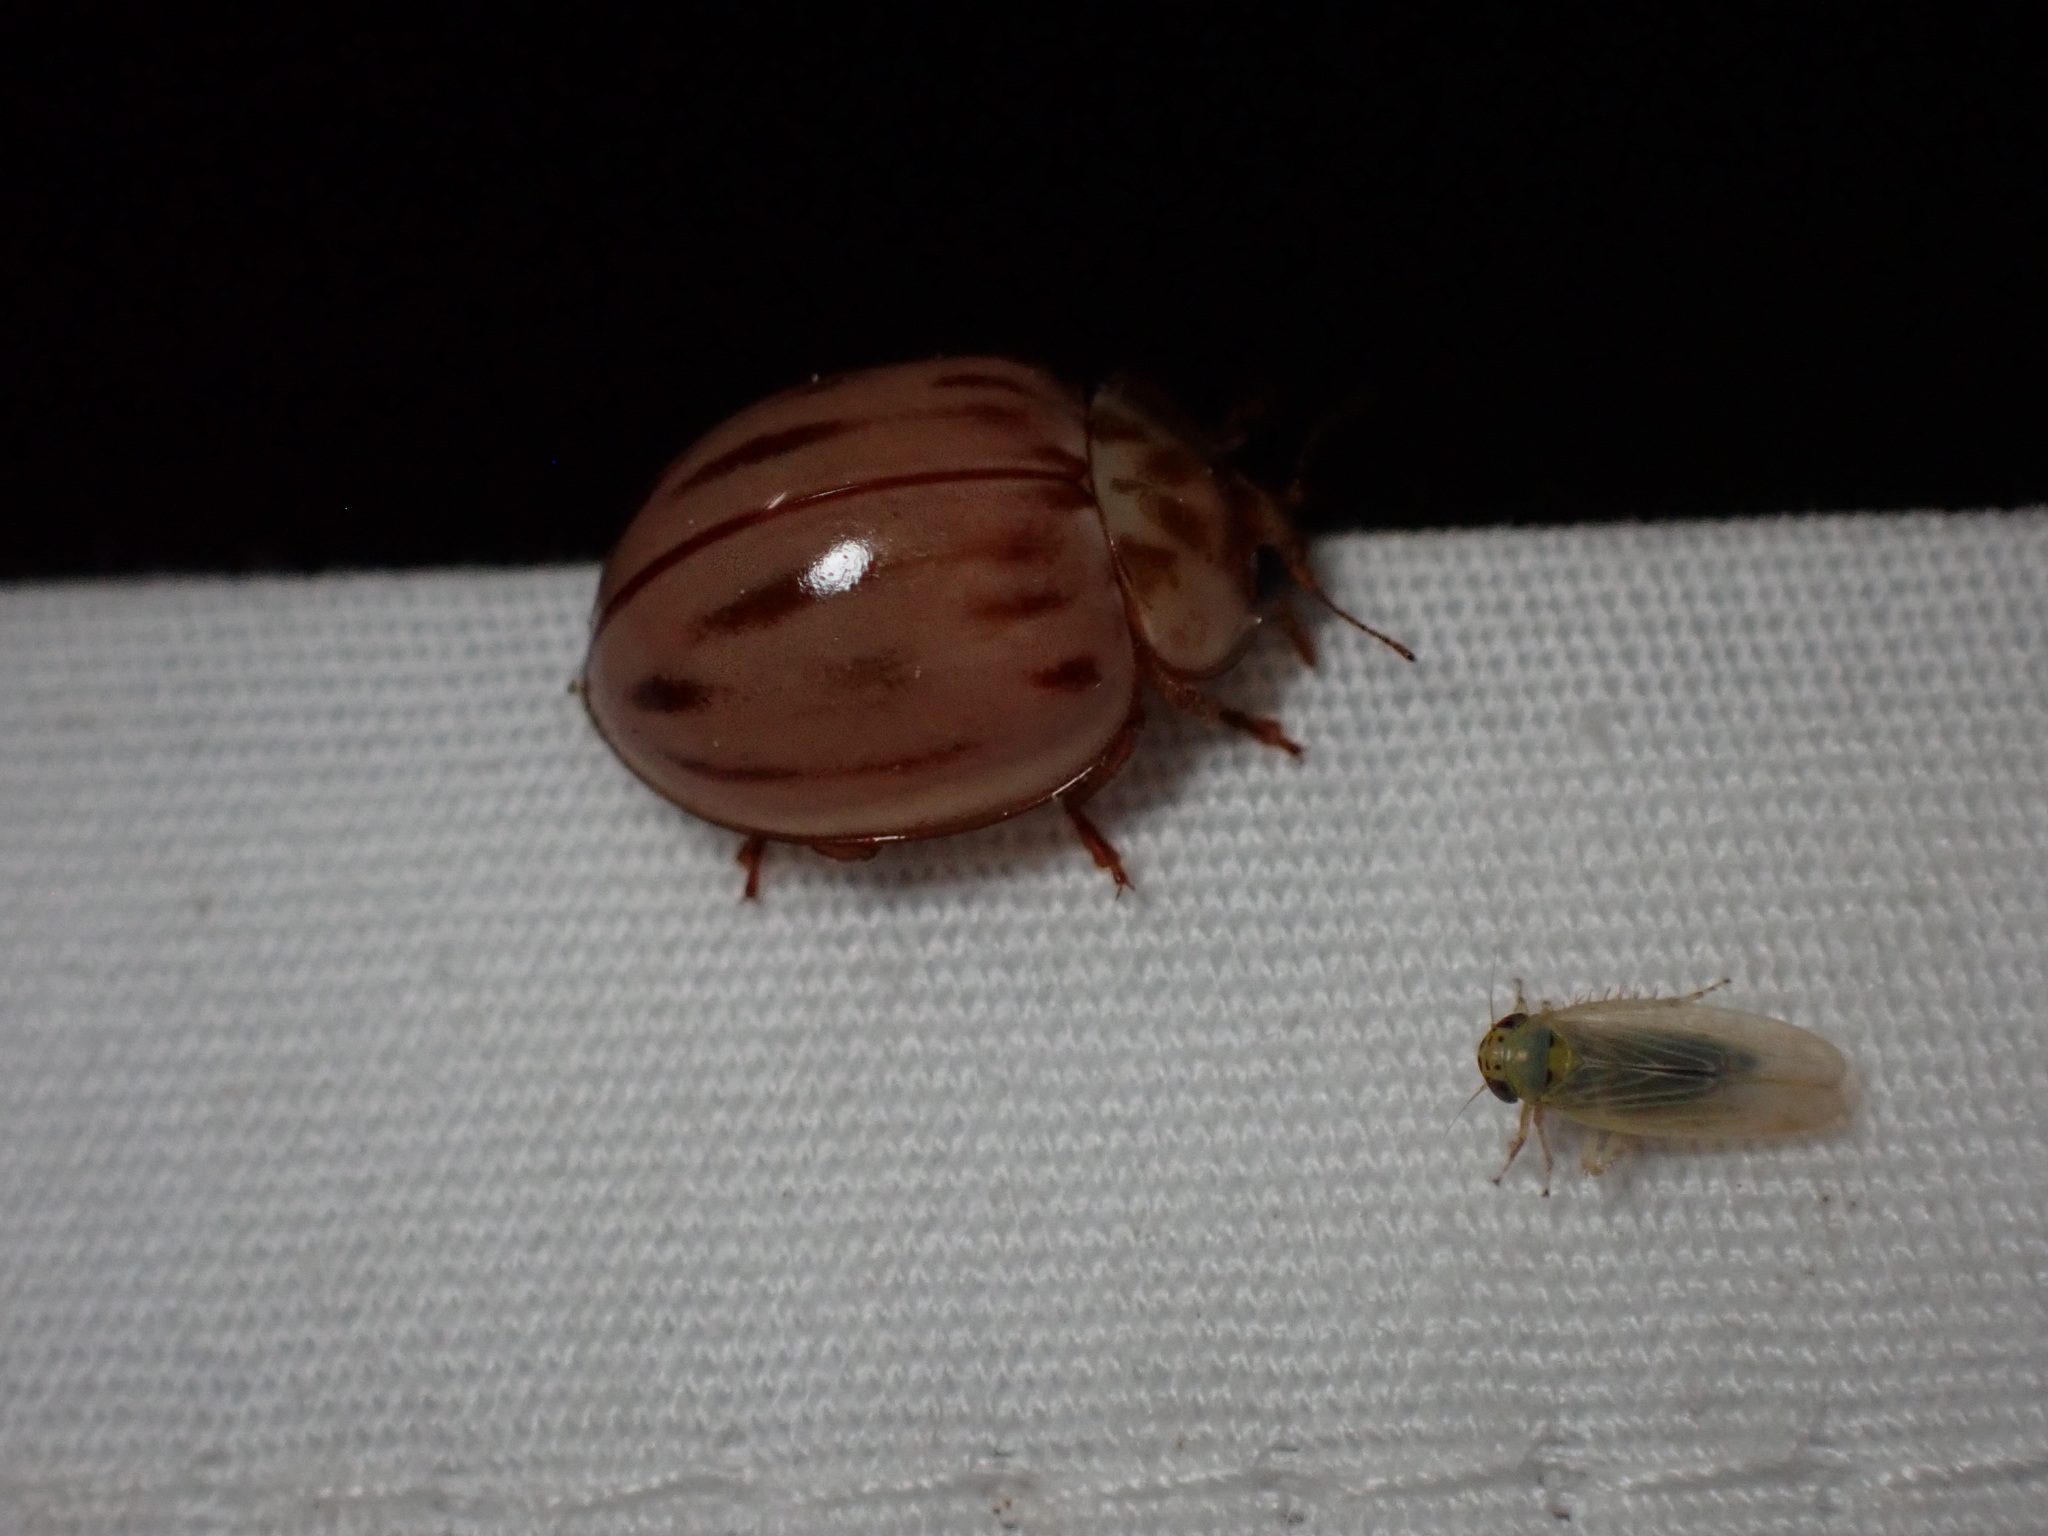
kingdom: Animalia
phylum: Arthropoda
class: Insecta
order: Coleoptera
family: Coccinellidae
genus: Myzia
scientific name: Myzia interrupta
